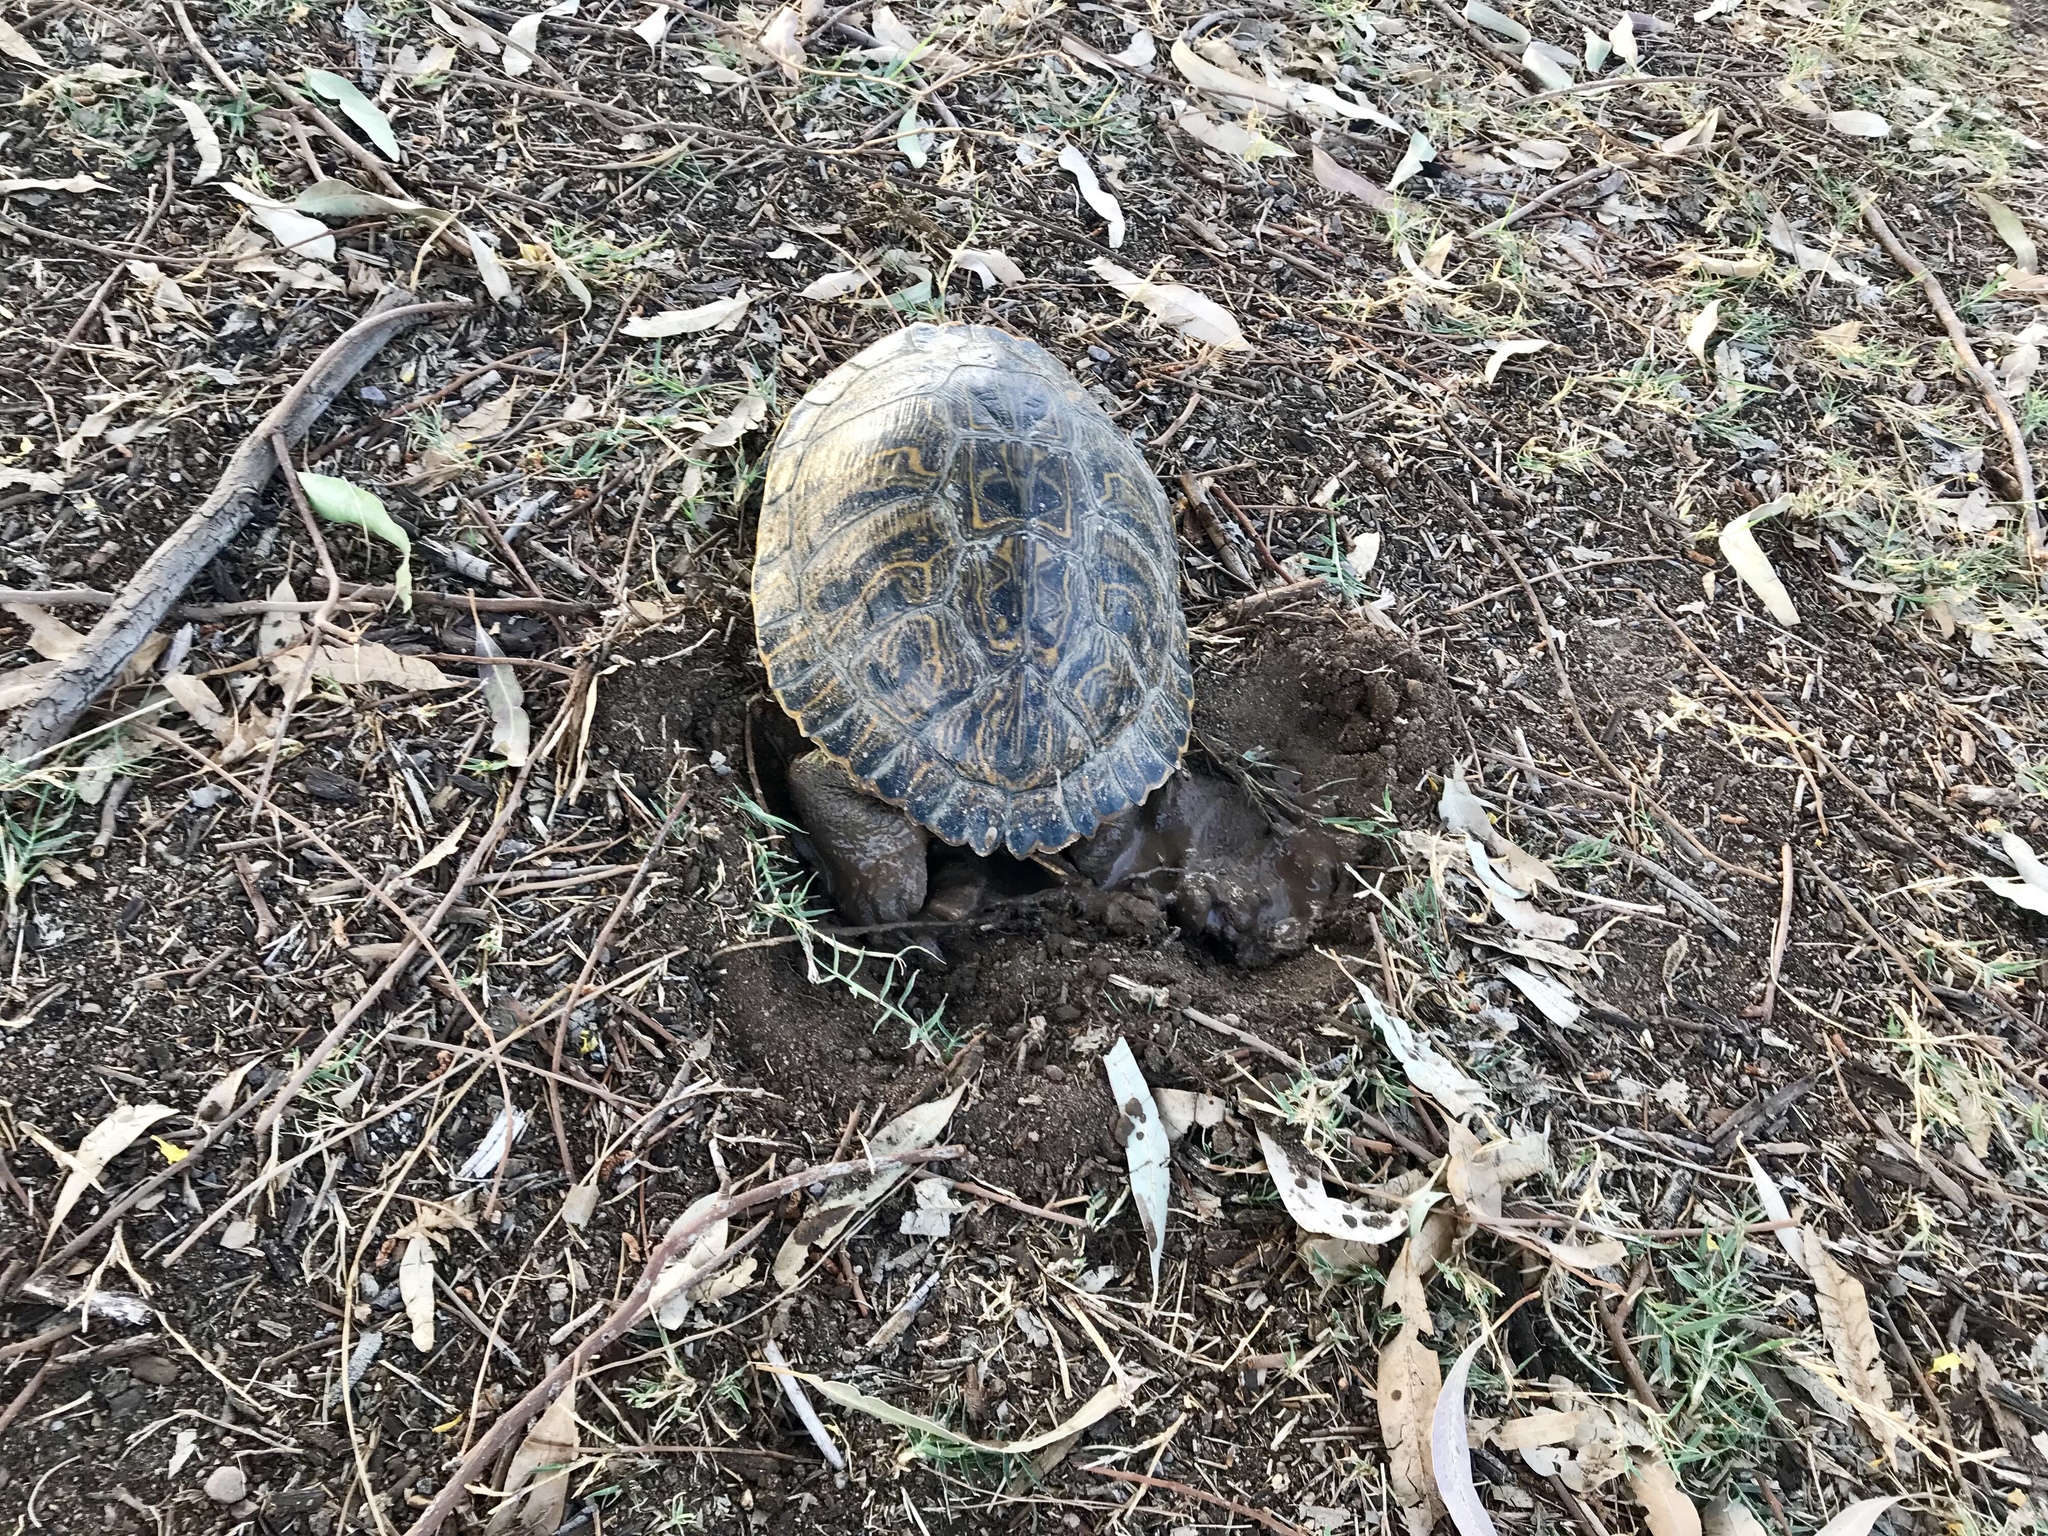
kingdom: Animalia
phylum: Chordata
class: Testudines
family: Emydidae
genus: Trachemys
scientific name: Trachemys scripta
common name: Slider
